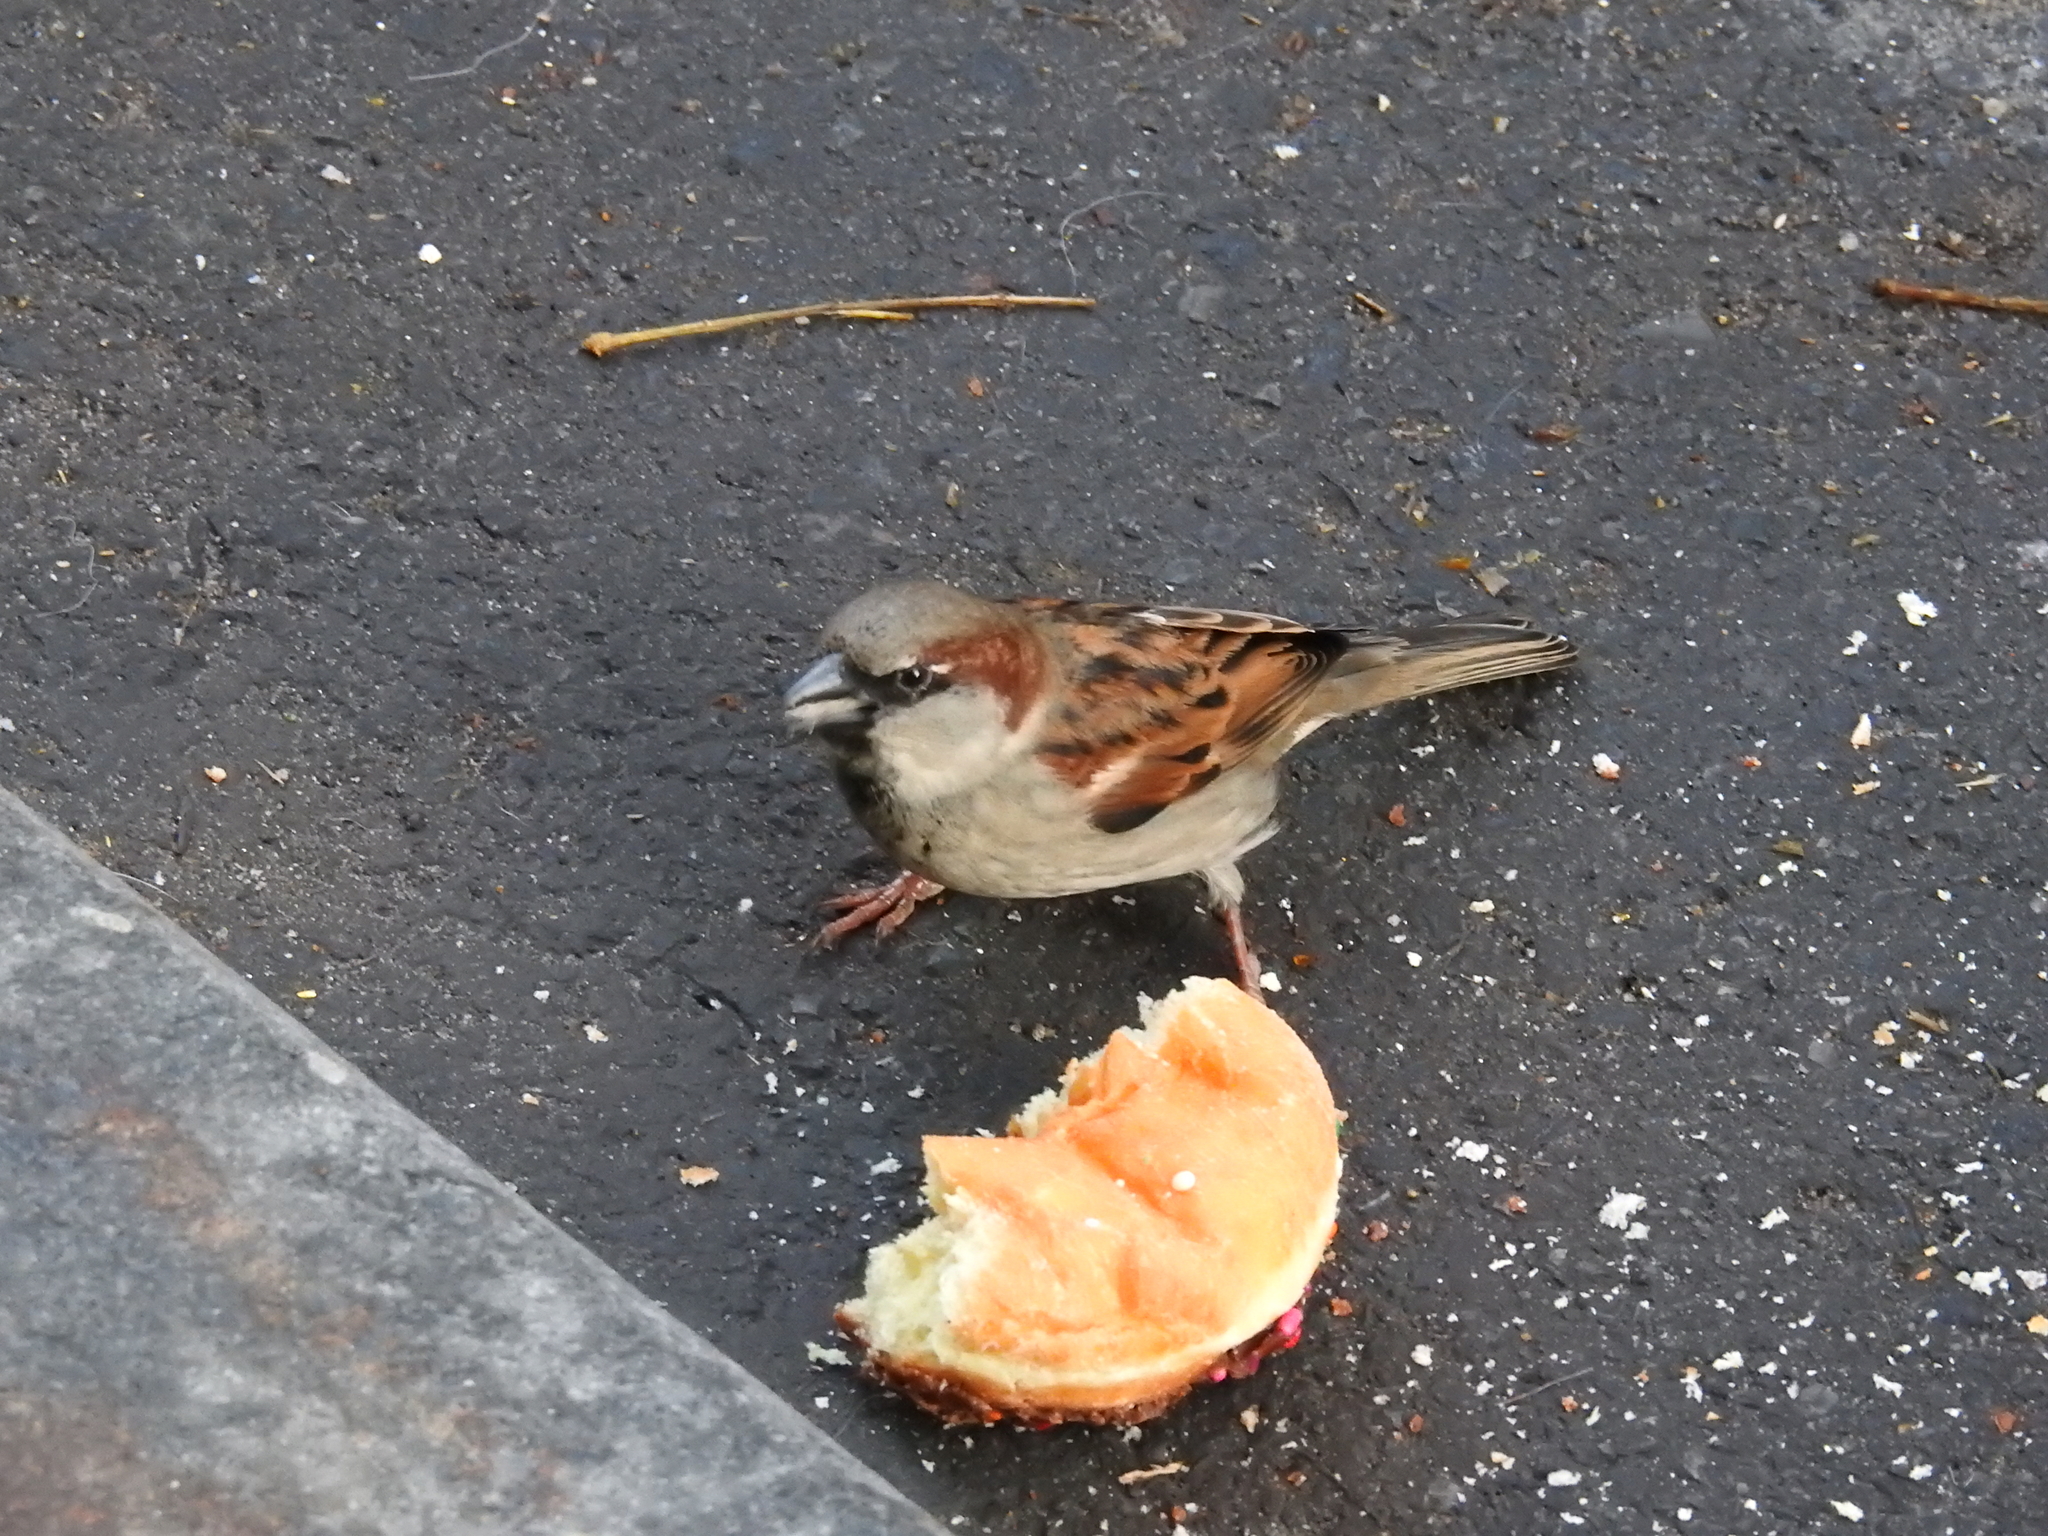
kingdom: Animalia
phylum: Chordata
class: Aves
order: Passeriformes
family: Passeridae
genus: Passer
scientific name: Passer domesticus
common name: House sparrow
